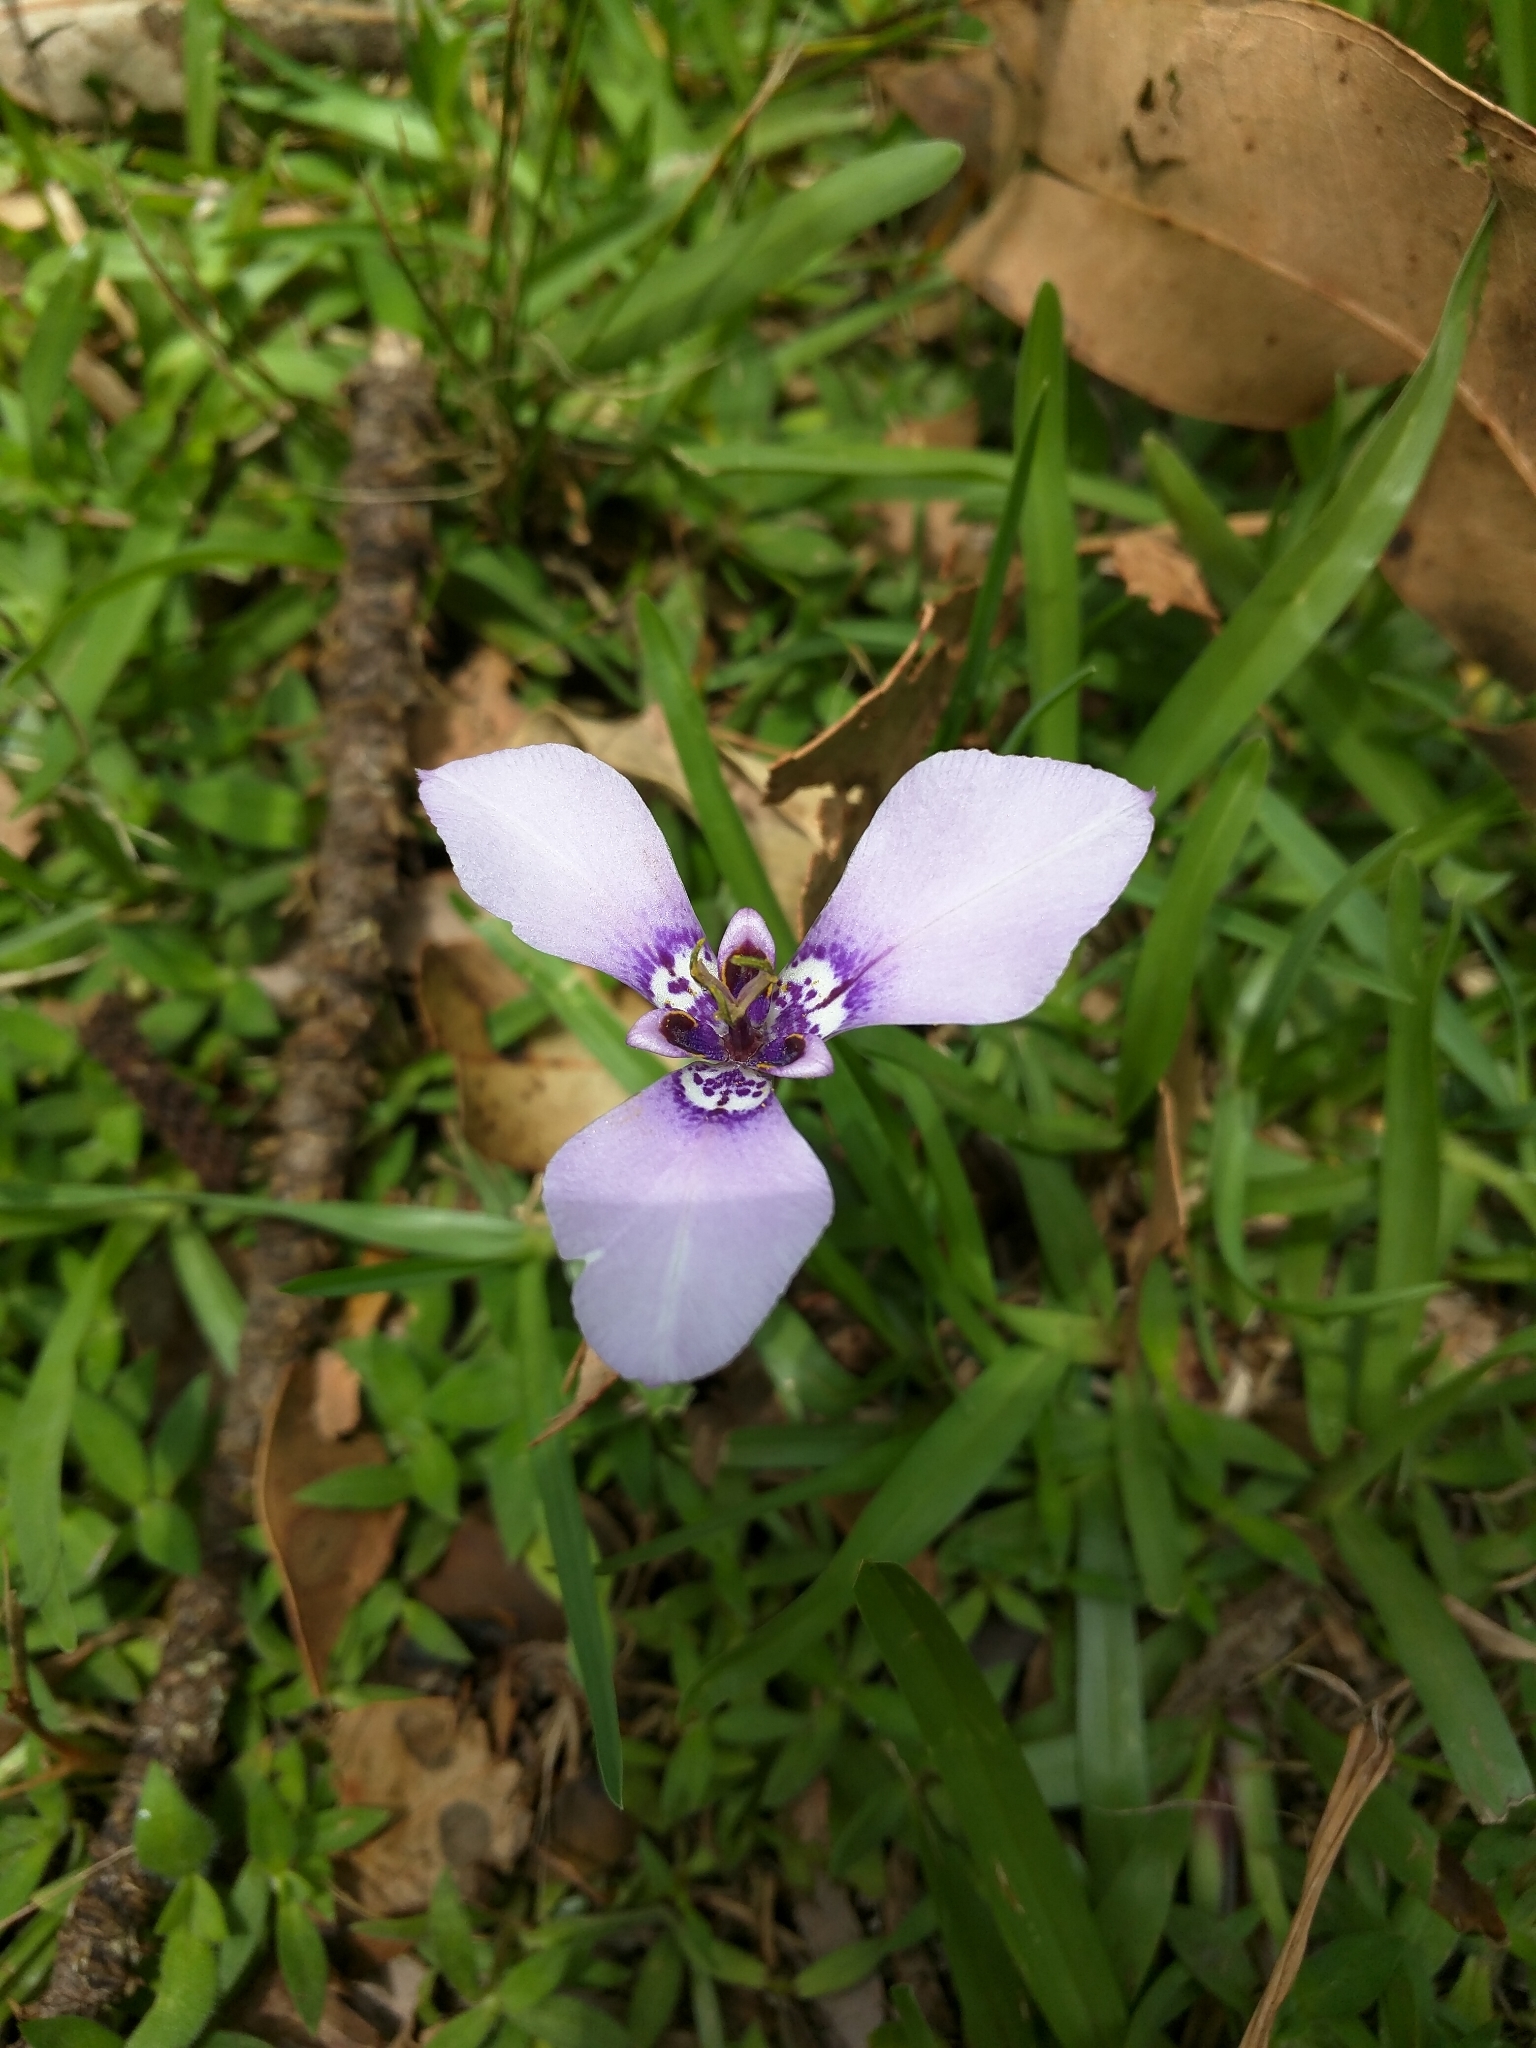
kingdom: Plantae
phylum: Tracheophyta
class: Liliopsida
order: Asparagales
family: Iridaceae
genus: Herbertia
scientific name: Herbertia lahue
